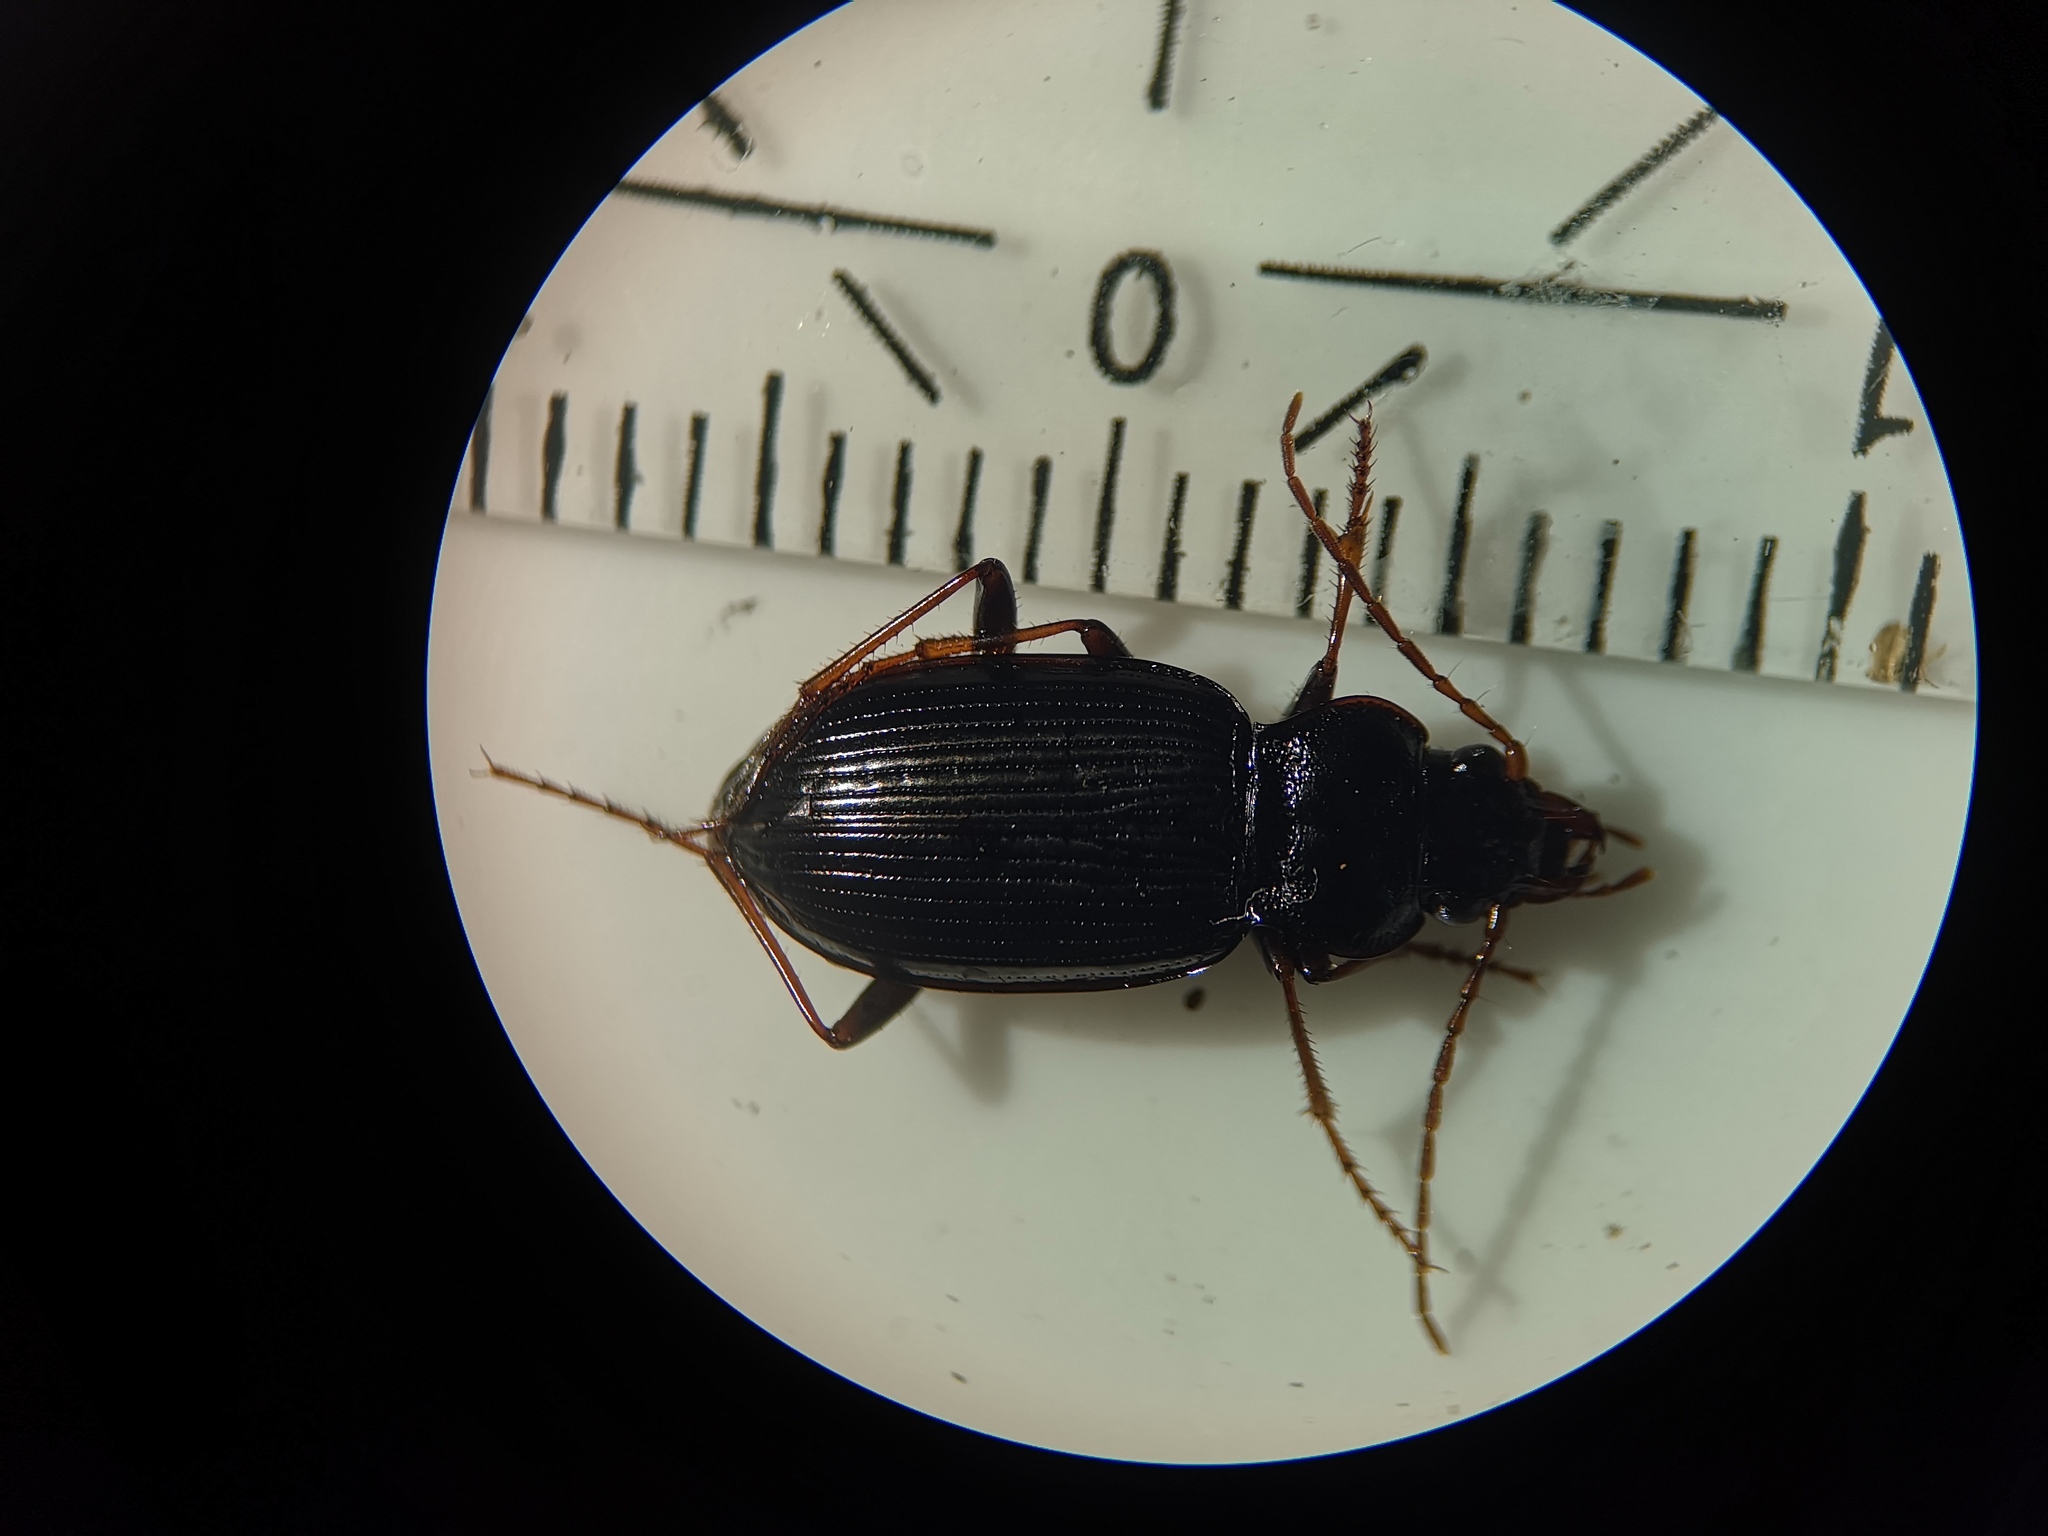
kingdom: Animalia
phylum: Arthropoda
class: Insecta
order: Coleoptera
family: Carabidae
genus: Nebria
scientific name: Nebria brevicollis
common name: Short-necked gazelle beetle
